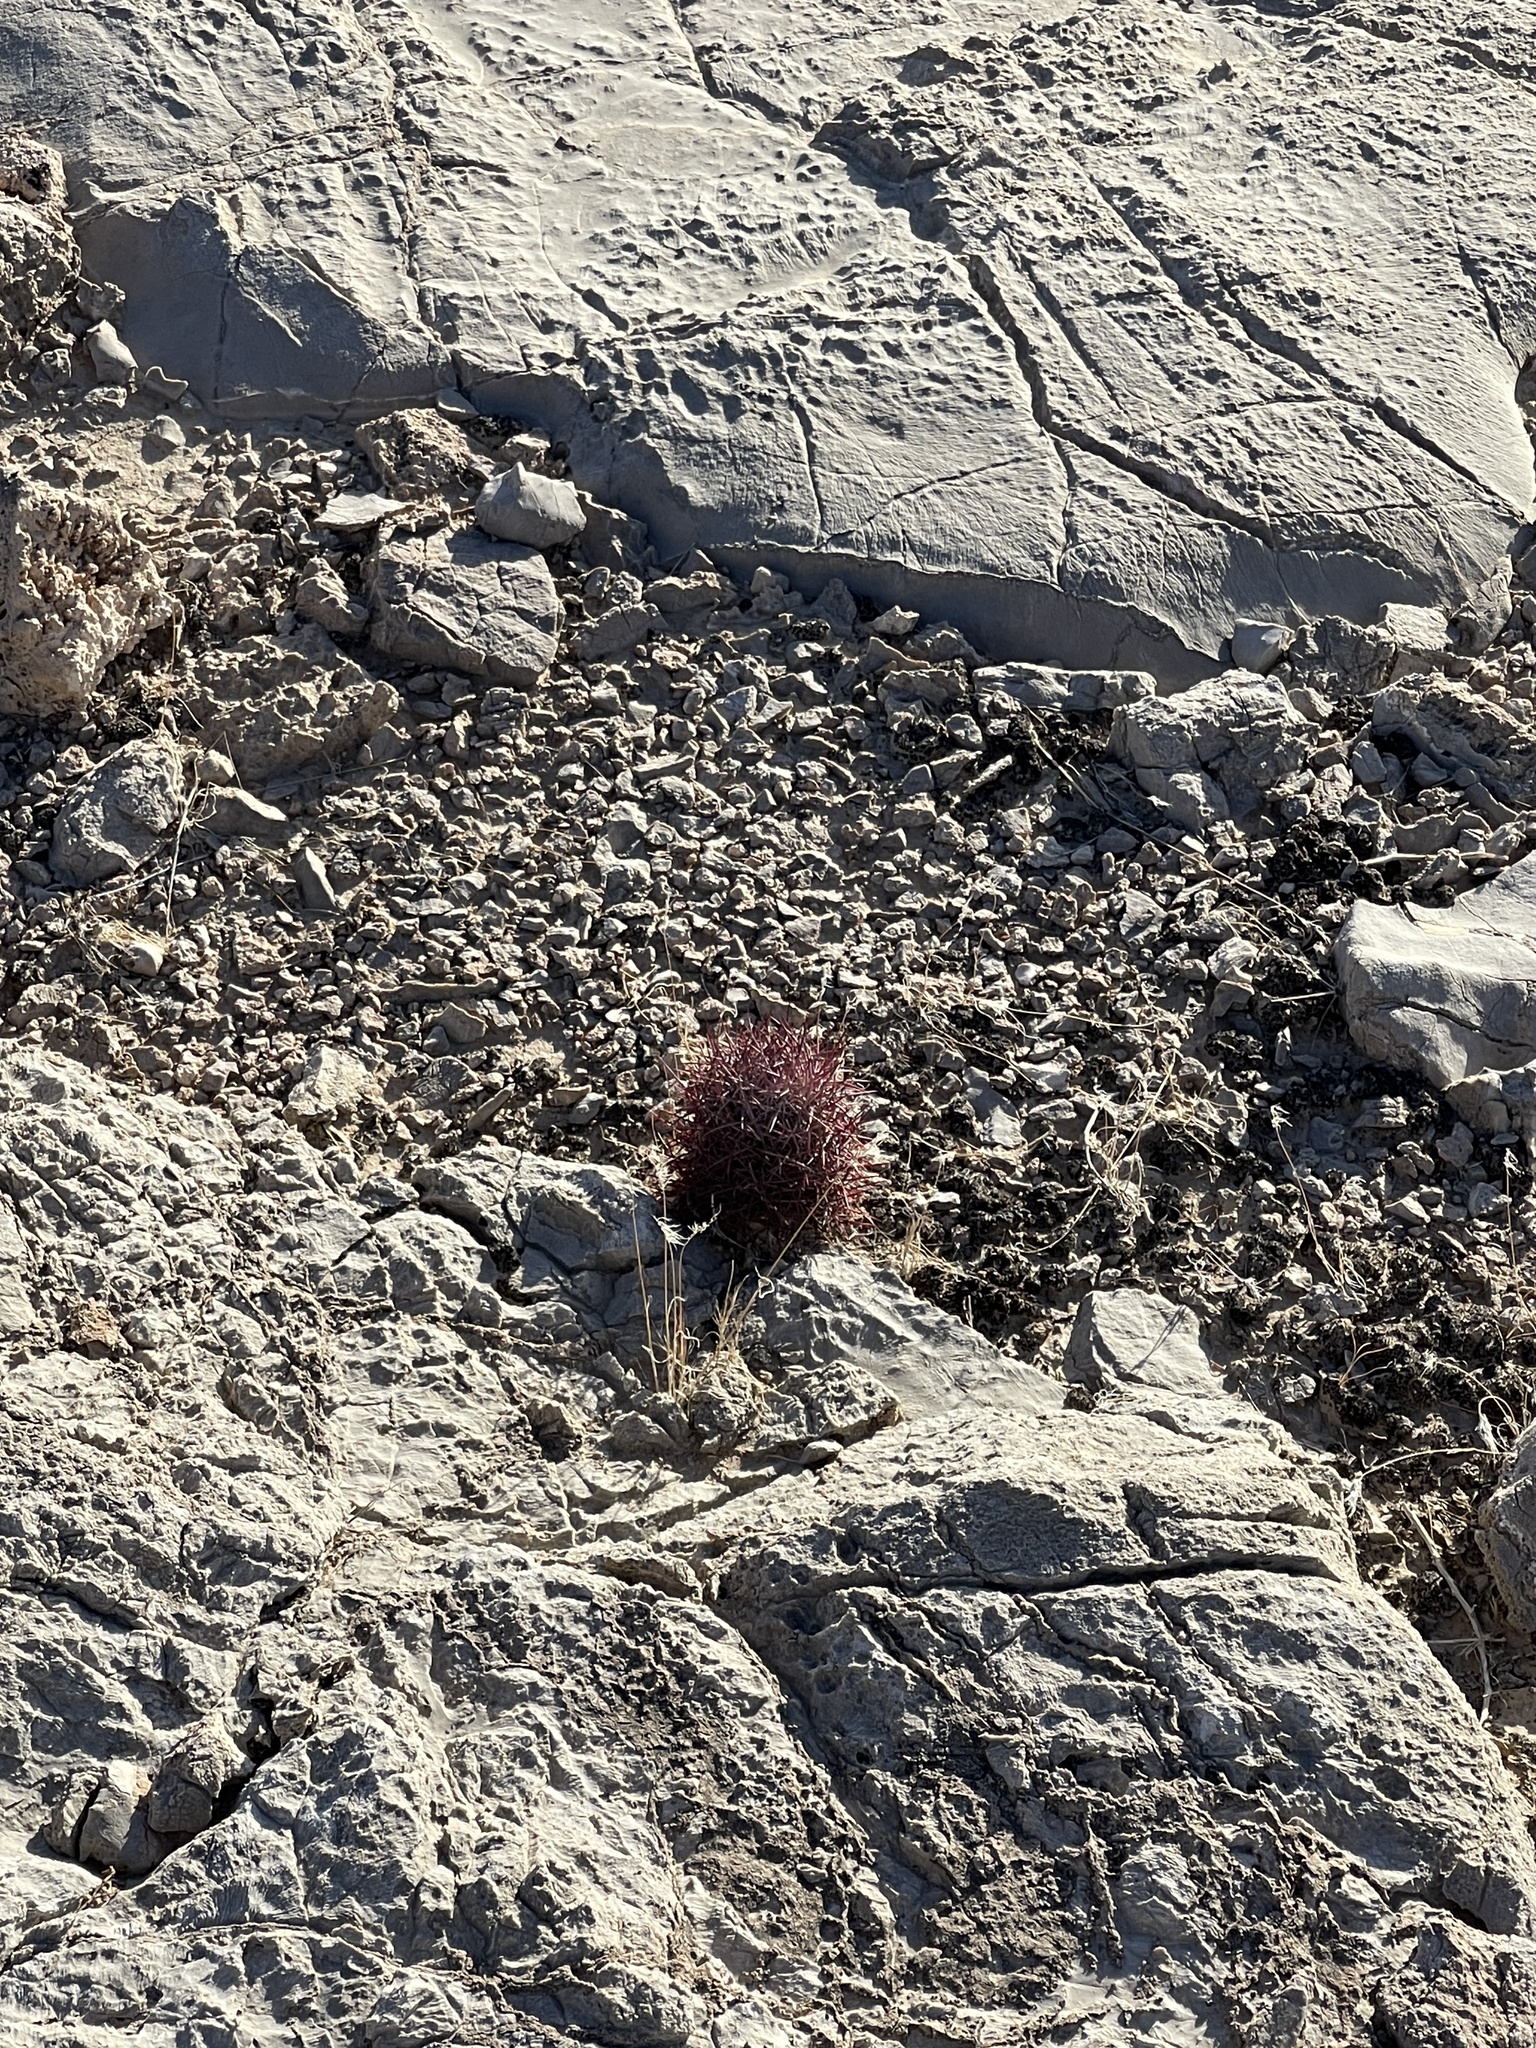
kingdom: Plantae
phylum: Tracheophyta
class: Magnoliopsida
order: Caryophyllales
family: Cactaceae
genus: Sclerocactus
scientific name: Sclerocactus johnsonii
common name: Eight-spine fishhook cactus
